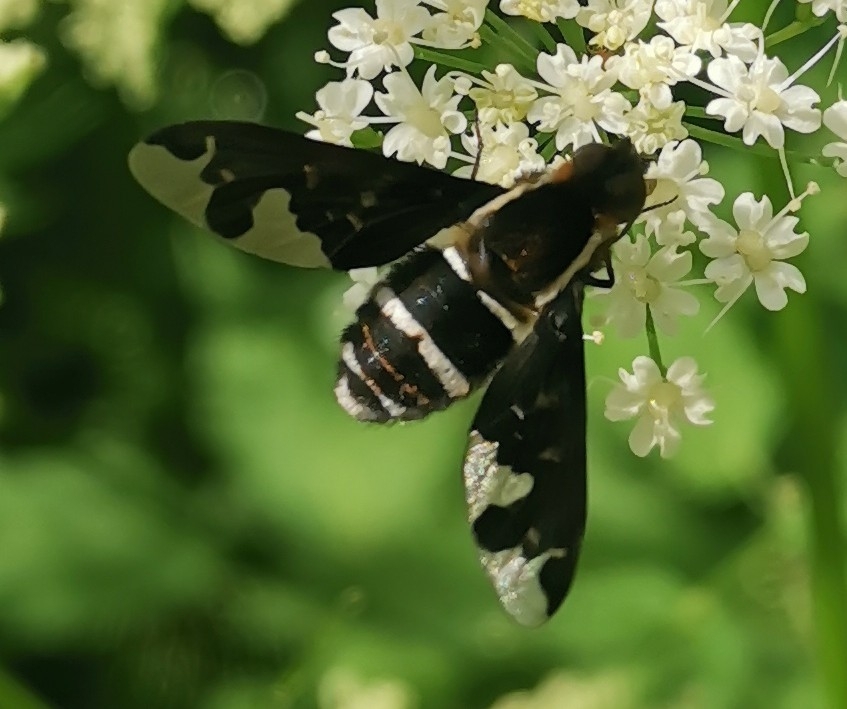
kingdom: Animalia
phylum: Arthropoda
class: Insecta
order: Diptera
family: Bombyliidae
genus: Hemipenthes
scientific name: Hemipenthes maura
